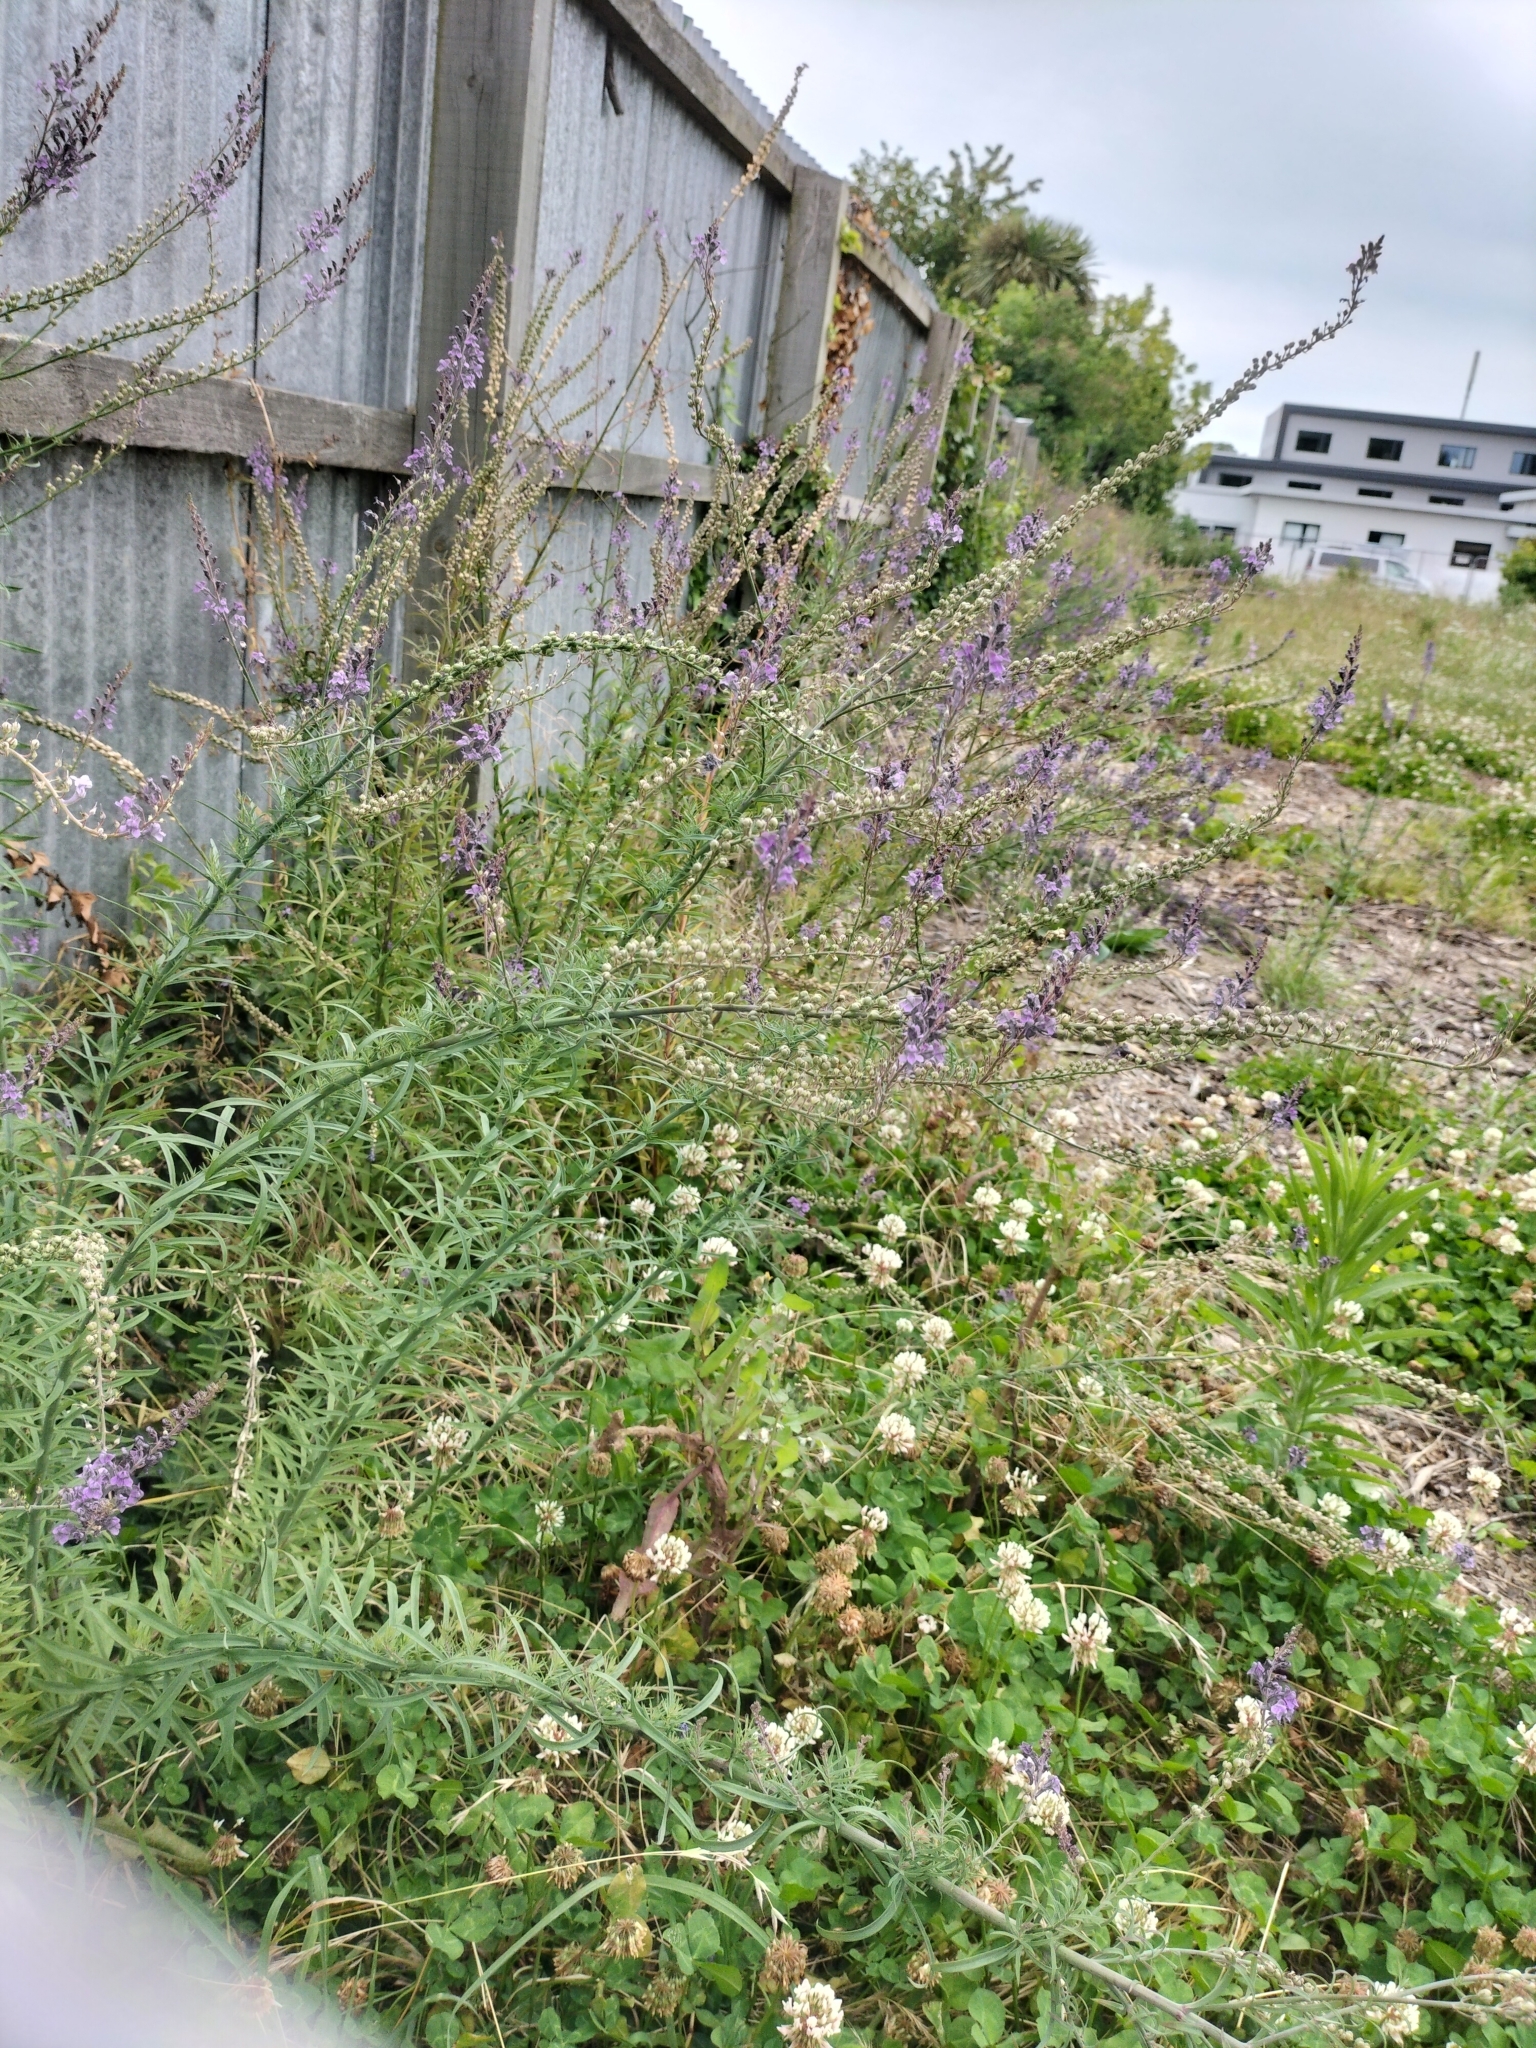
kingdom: Plantae
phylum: Tracheophyta
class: Magnoliopsida
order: Lamiales
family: Plantaginaceae
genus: Linaria
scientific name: Linaria purpurea
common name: Purple toadflax
